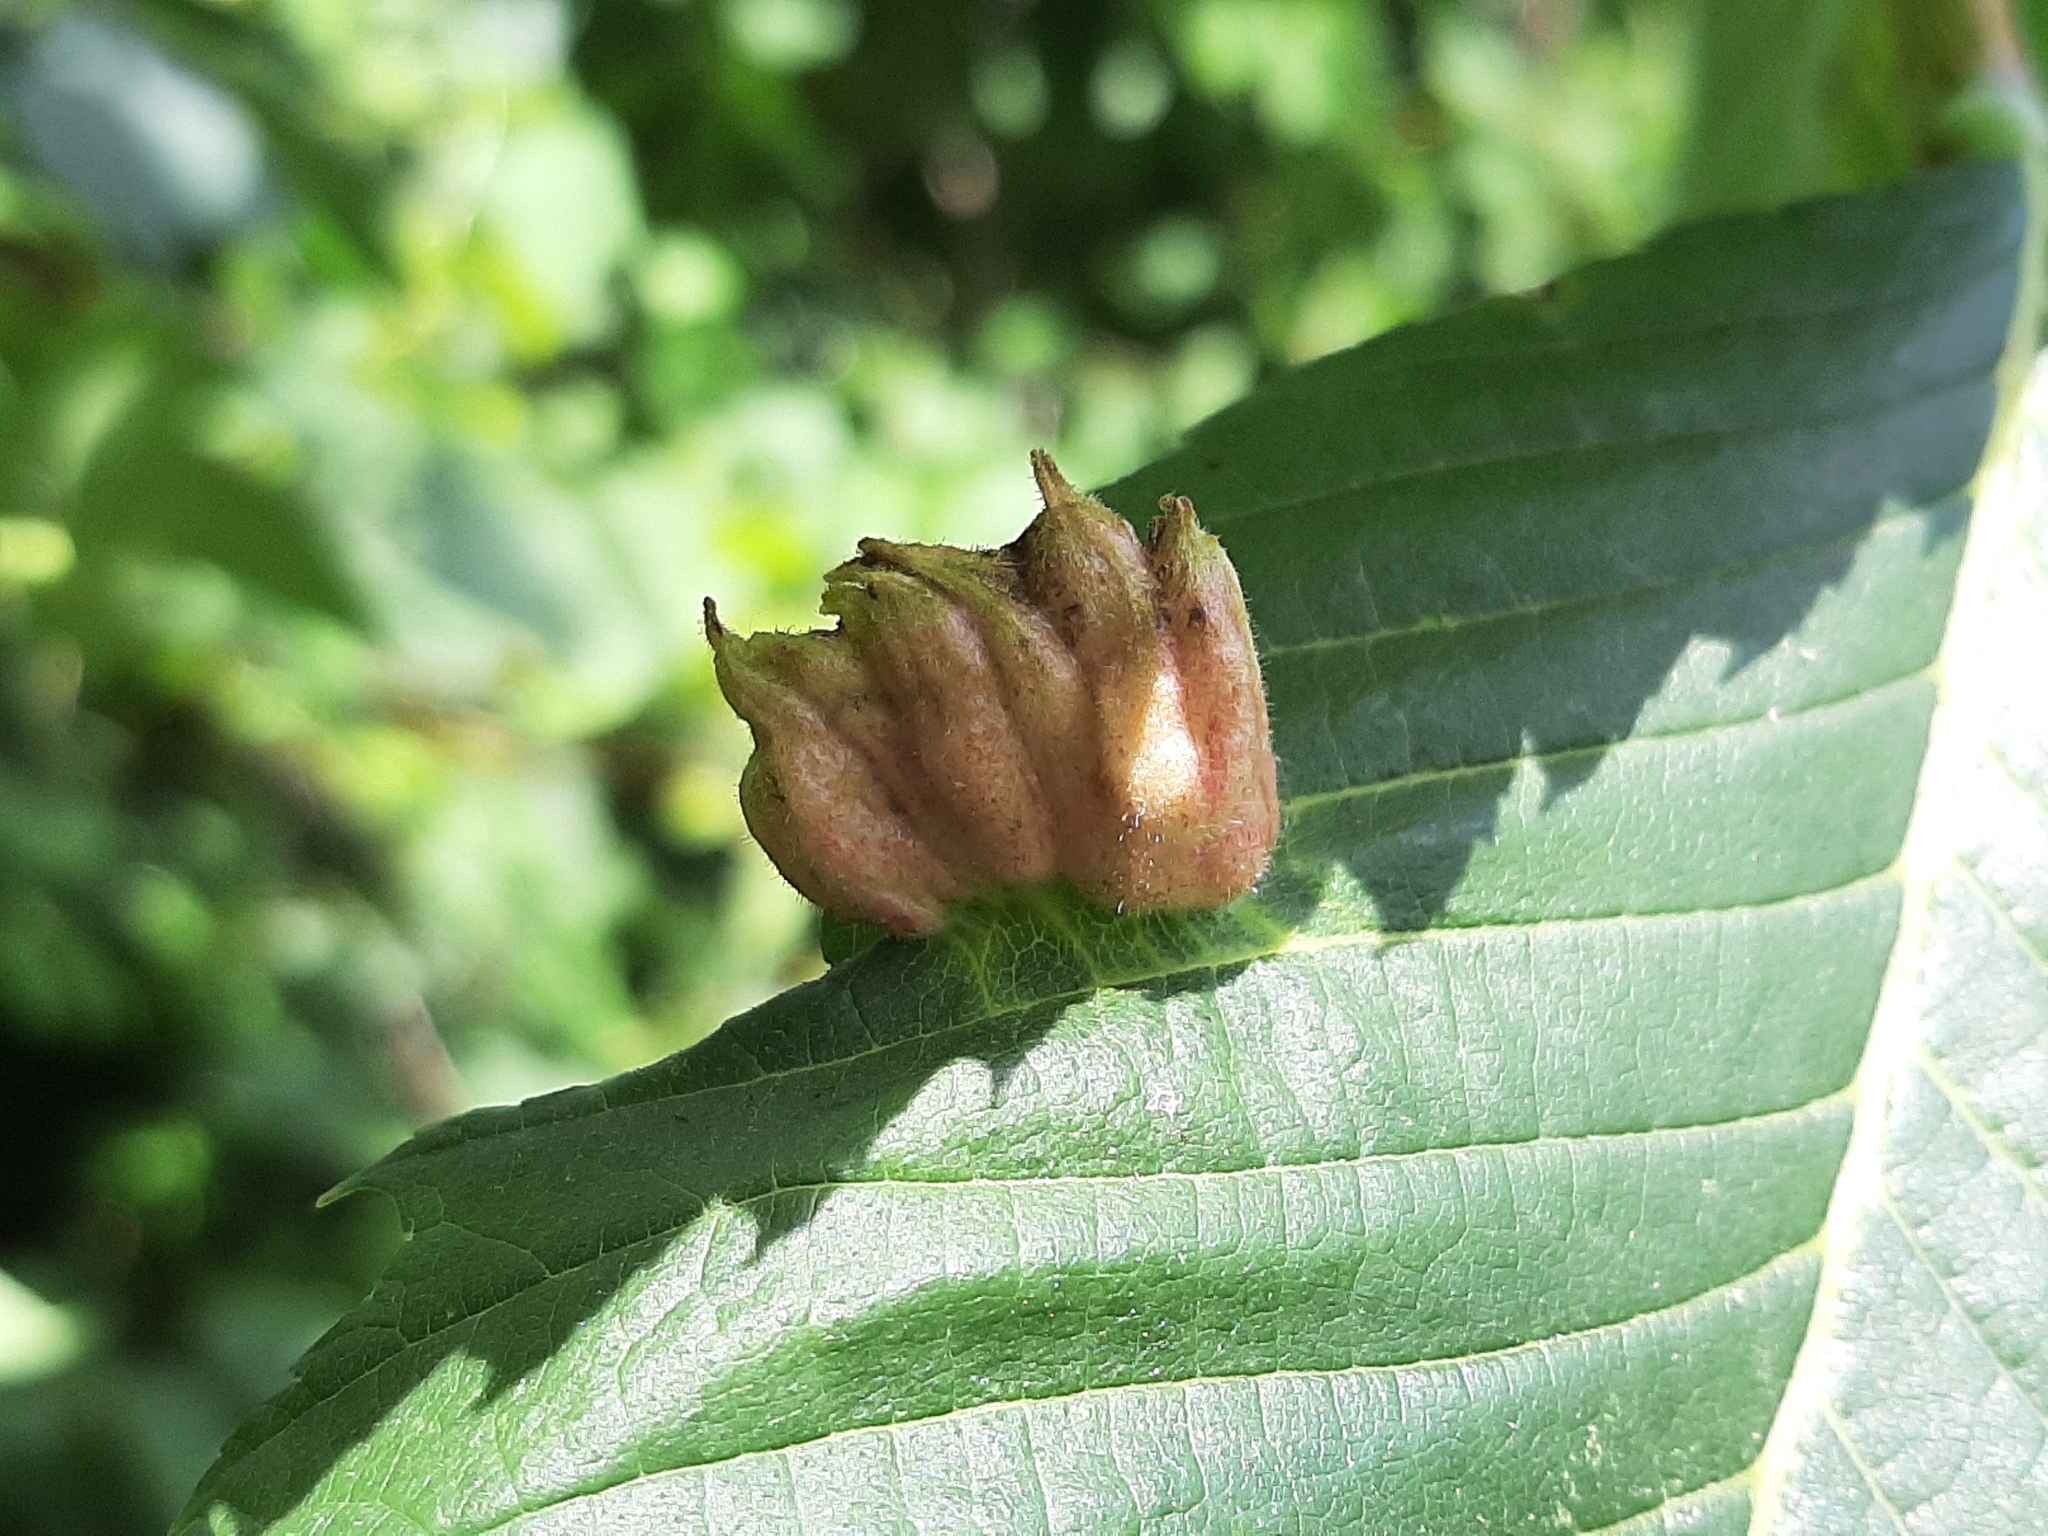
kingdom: Animalia
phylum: Arthropoda
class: Insecta
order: Hemiptera
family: Aphididae
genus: Colopha
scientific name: Colopha ulmicola
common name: Elm cockscombgall aphid
